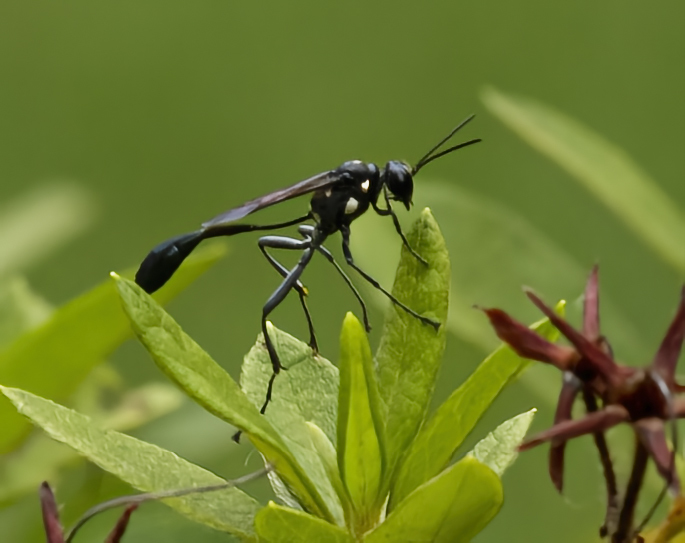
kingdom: Animalia
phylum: Arthropoda
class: Insecta
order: Hymenoptera
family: Sphecidae
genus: Eremnophila
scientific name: Eremnophila aureonotata
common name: Gold-marked thread-waisted wasp
